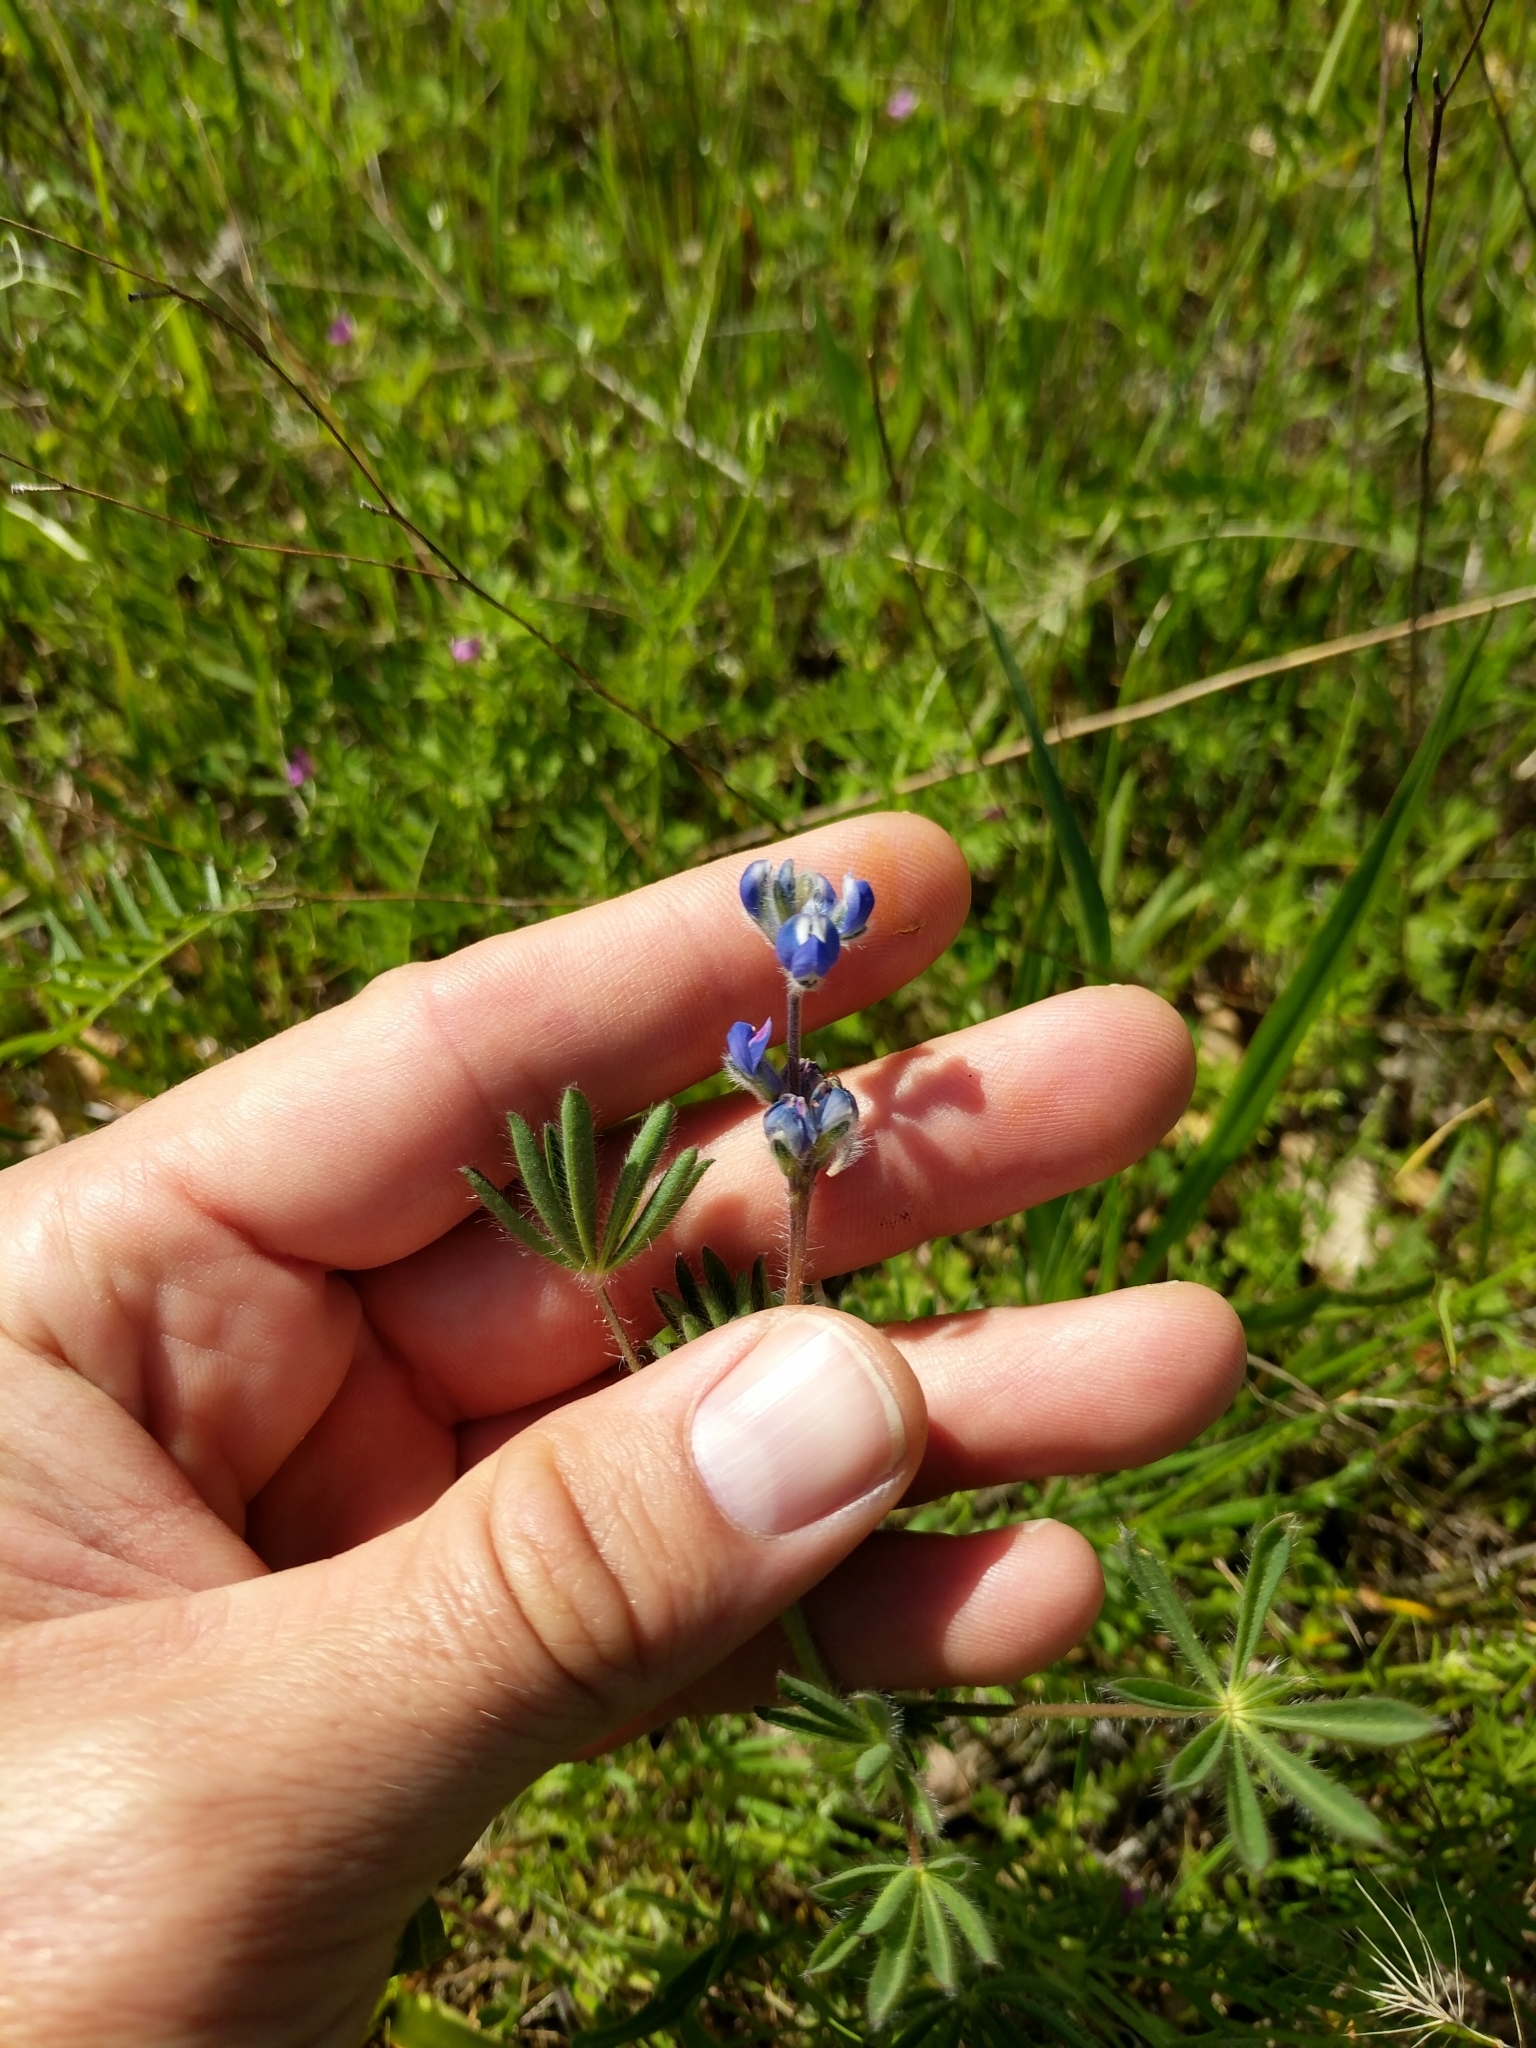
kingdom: Plantae
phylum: Tracheophyta
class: Magnoliopsida
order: Fabales
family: Fabaceae
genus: Lupinus
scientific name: Lupinus bicolor
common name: Miniature lupine
